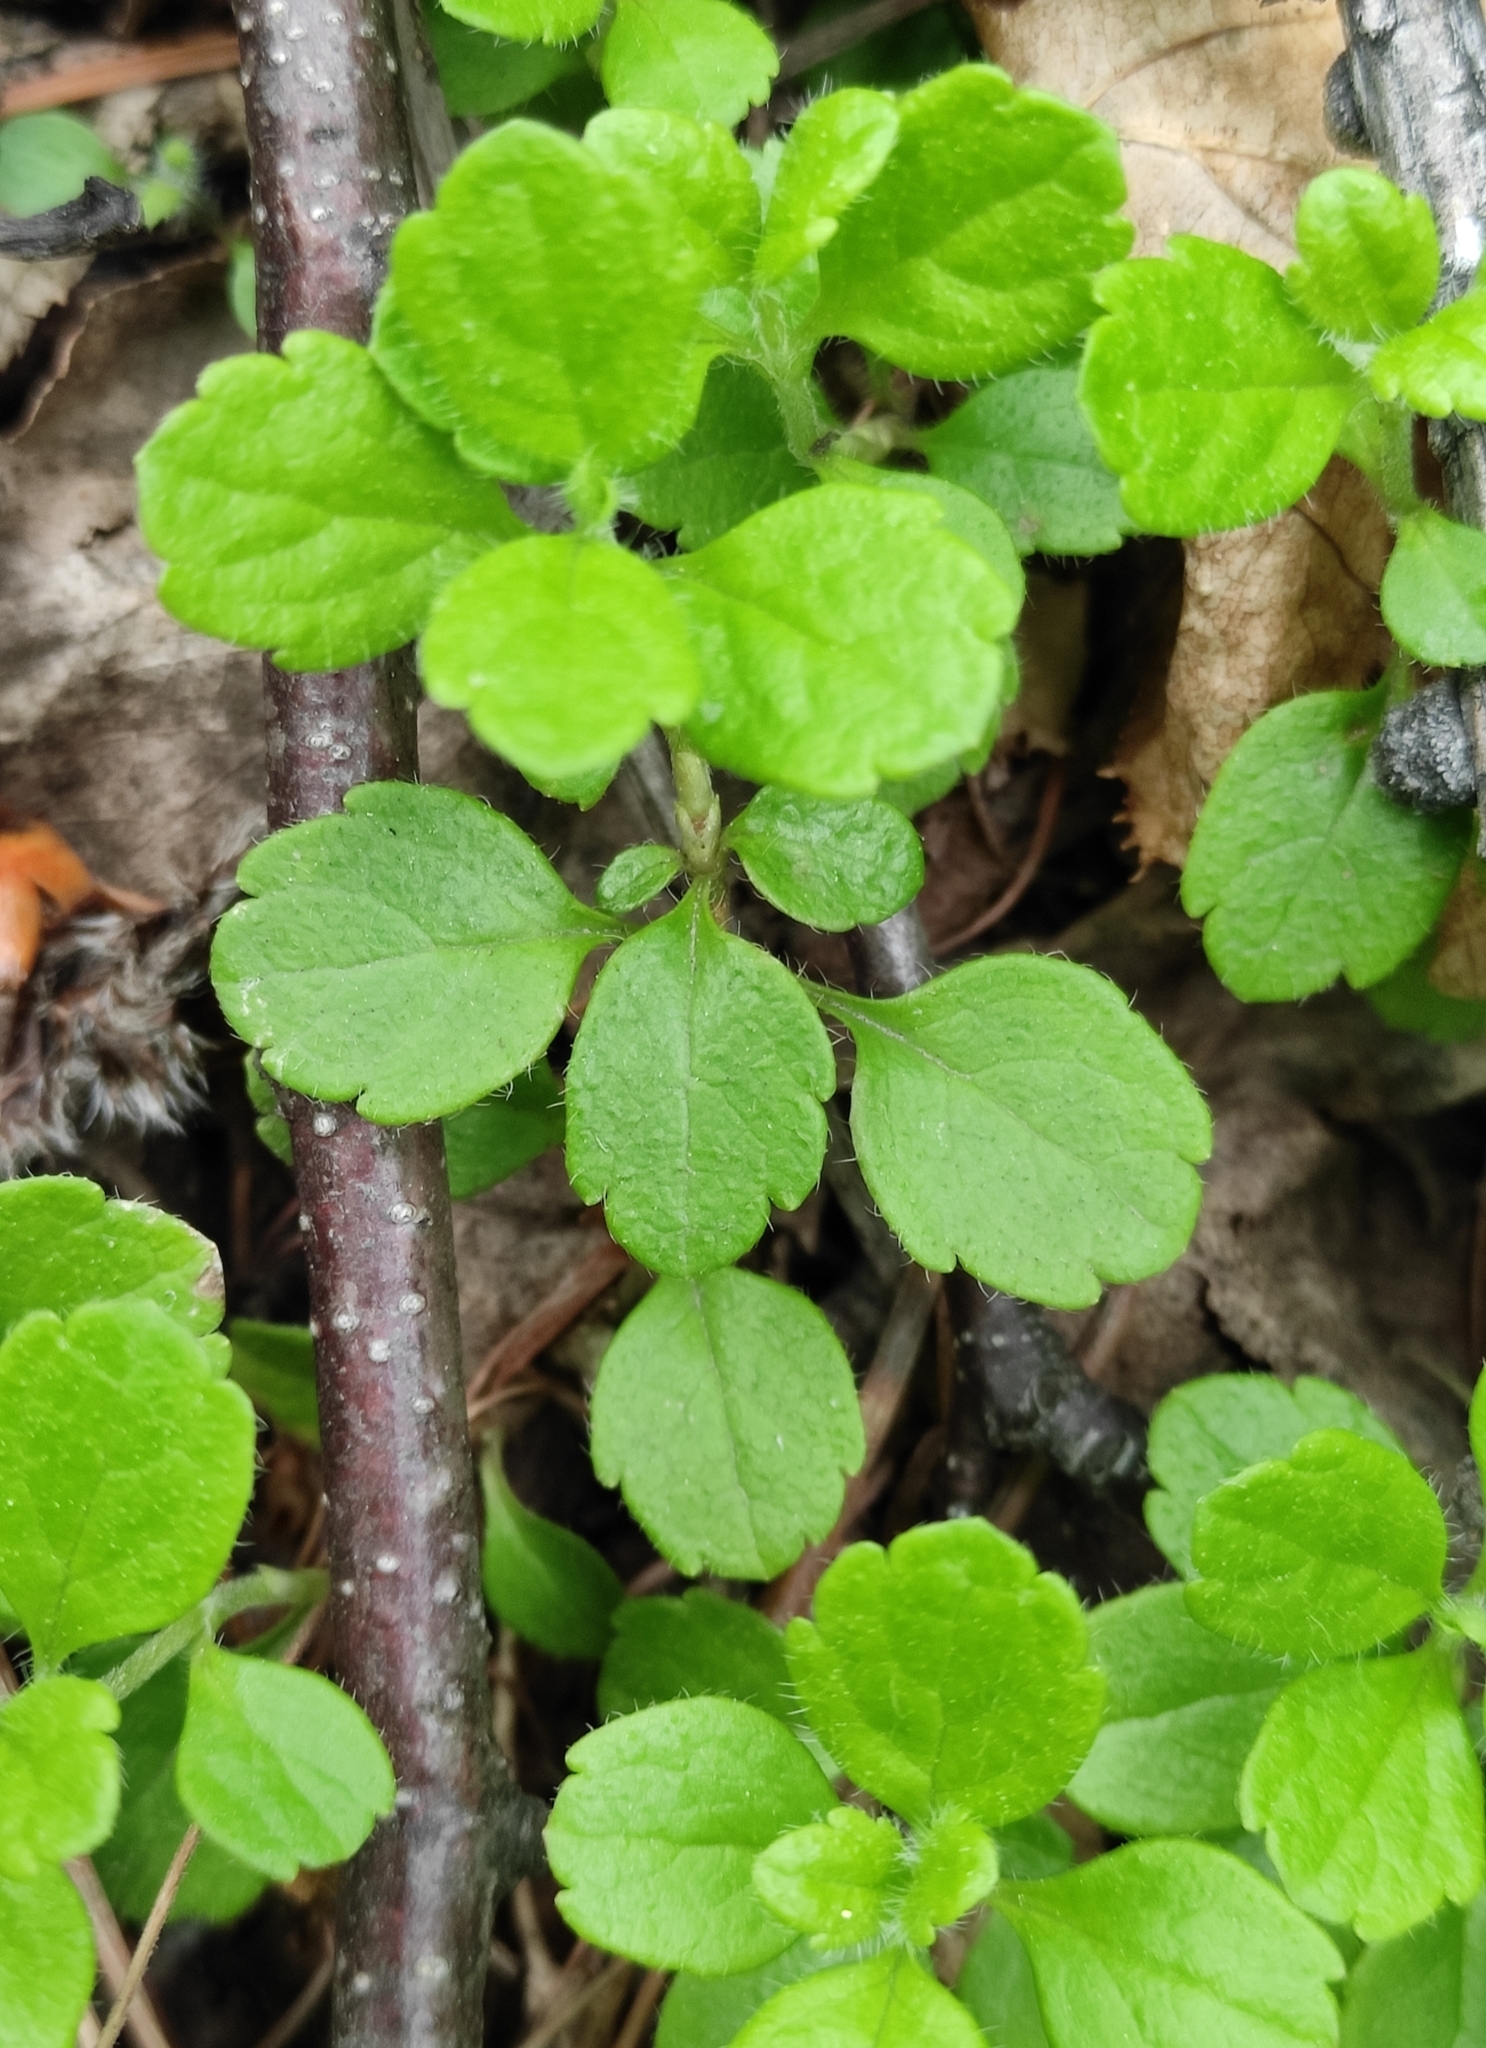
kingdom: Plantae
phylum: Tracheophyta
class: Magnoliopsida
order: Dipsacales
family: Caprifoliaceae
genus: Linnaea
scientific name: Linnaea borealis
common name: Twinflower
